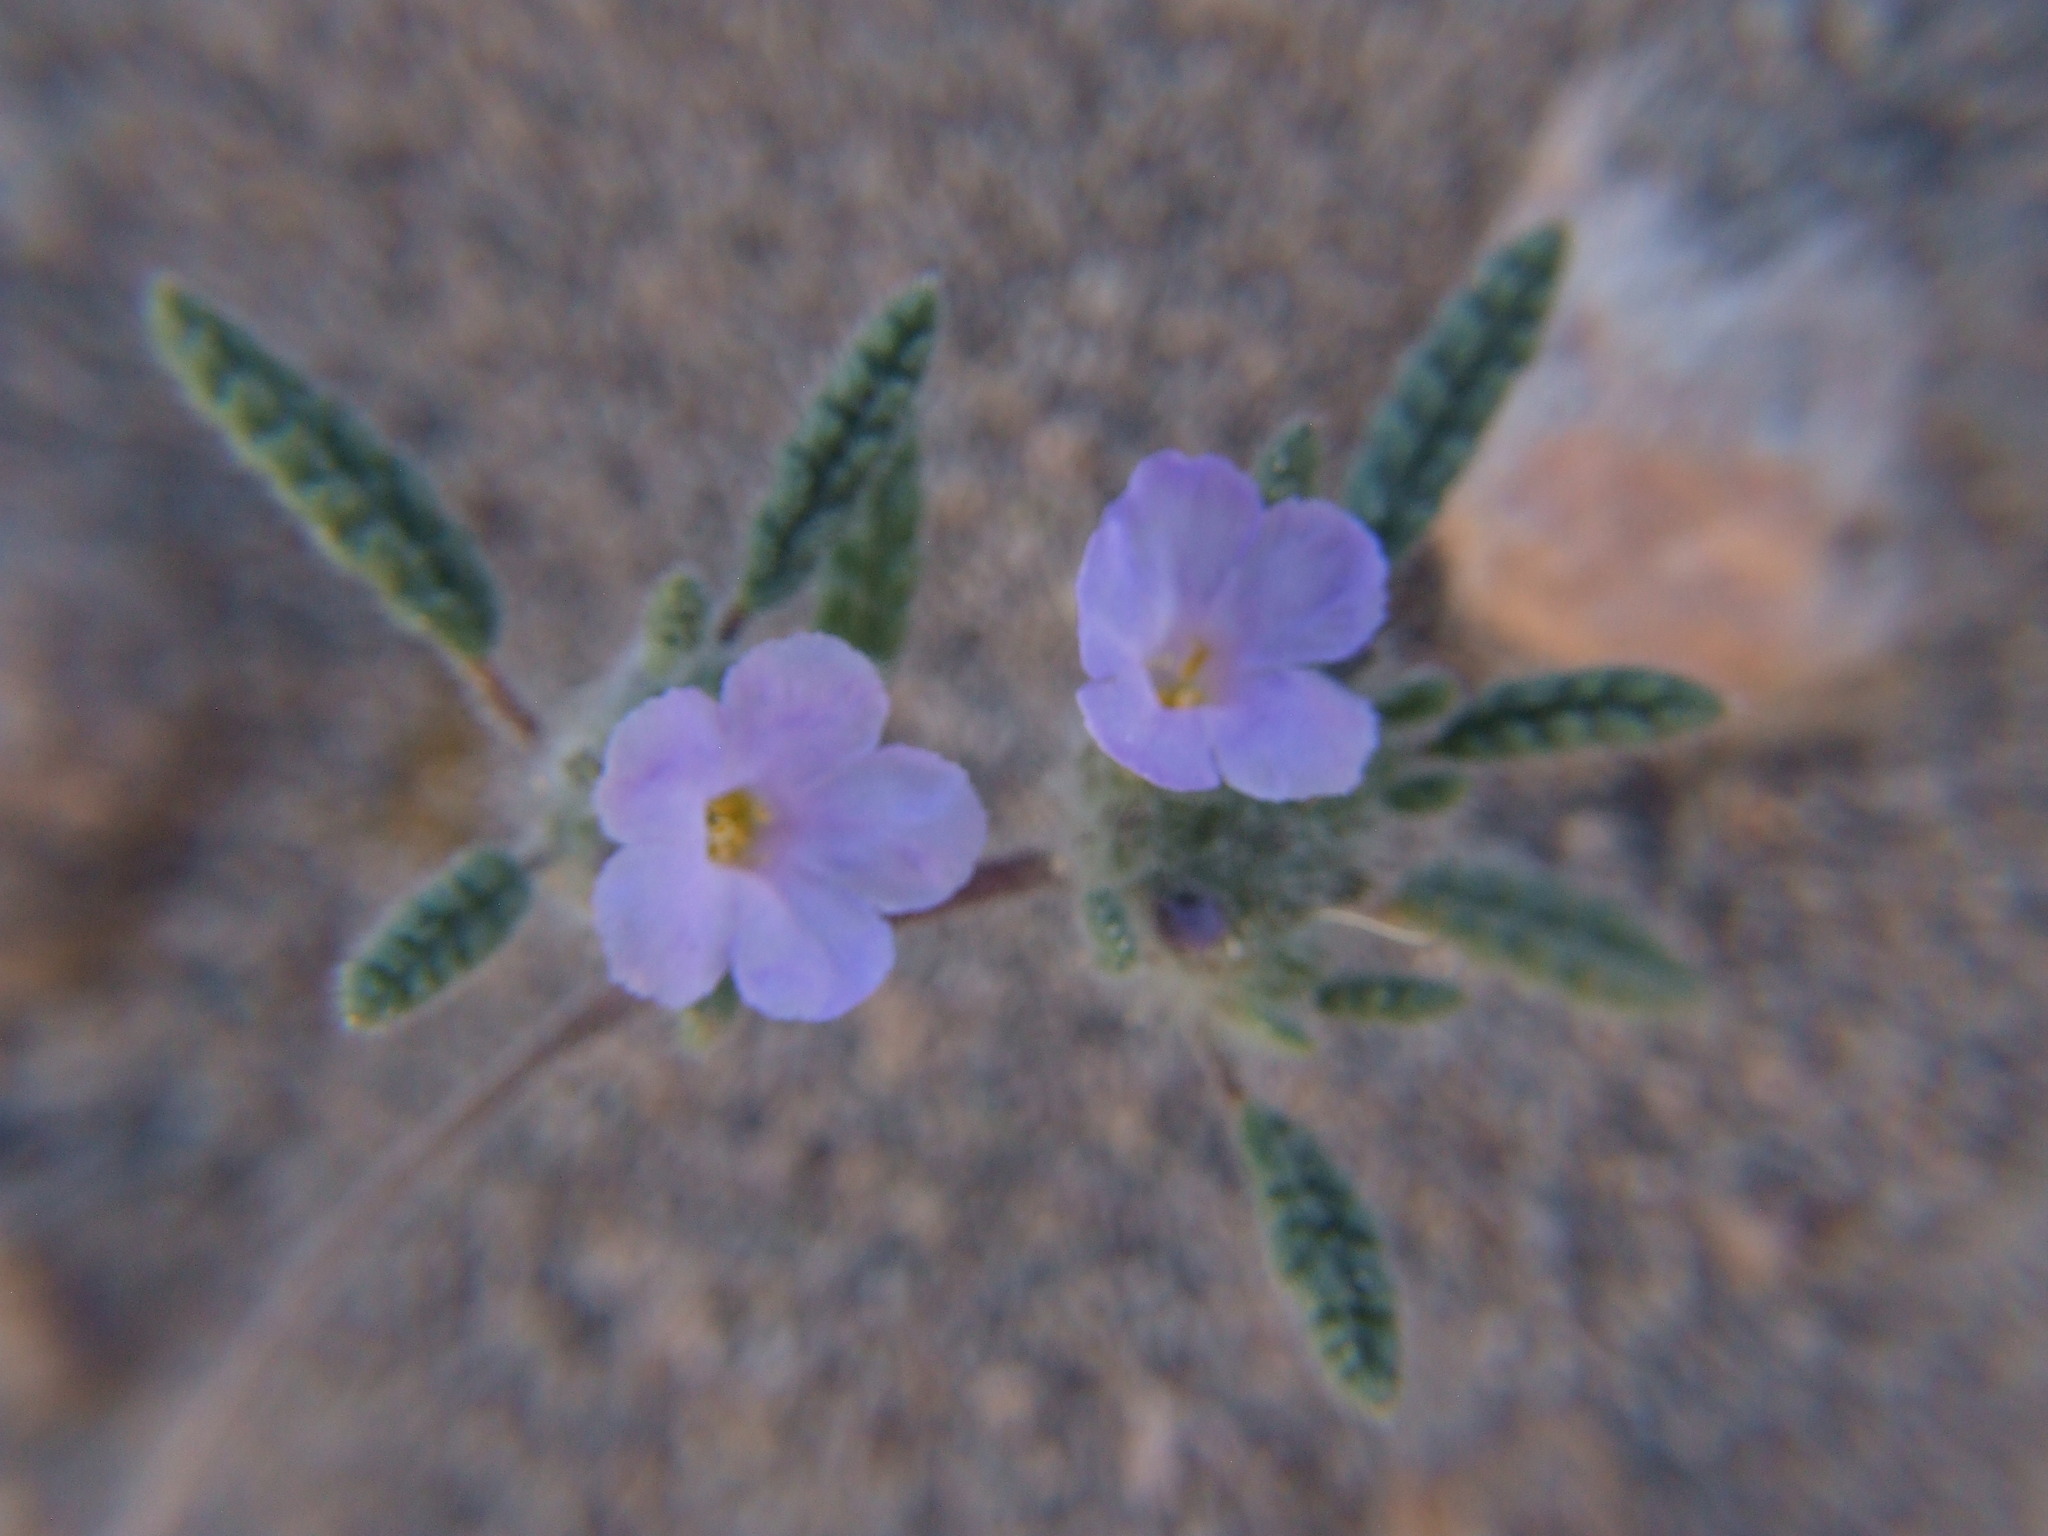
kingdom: Plantae
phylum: Tracheophyta
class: Magnoliopsida
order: Boraginales
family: Ehretiaceae
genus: Tiquilia
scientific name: Tiquilia elongata
